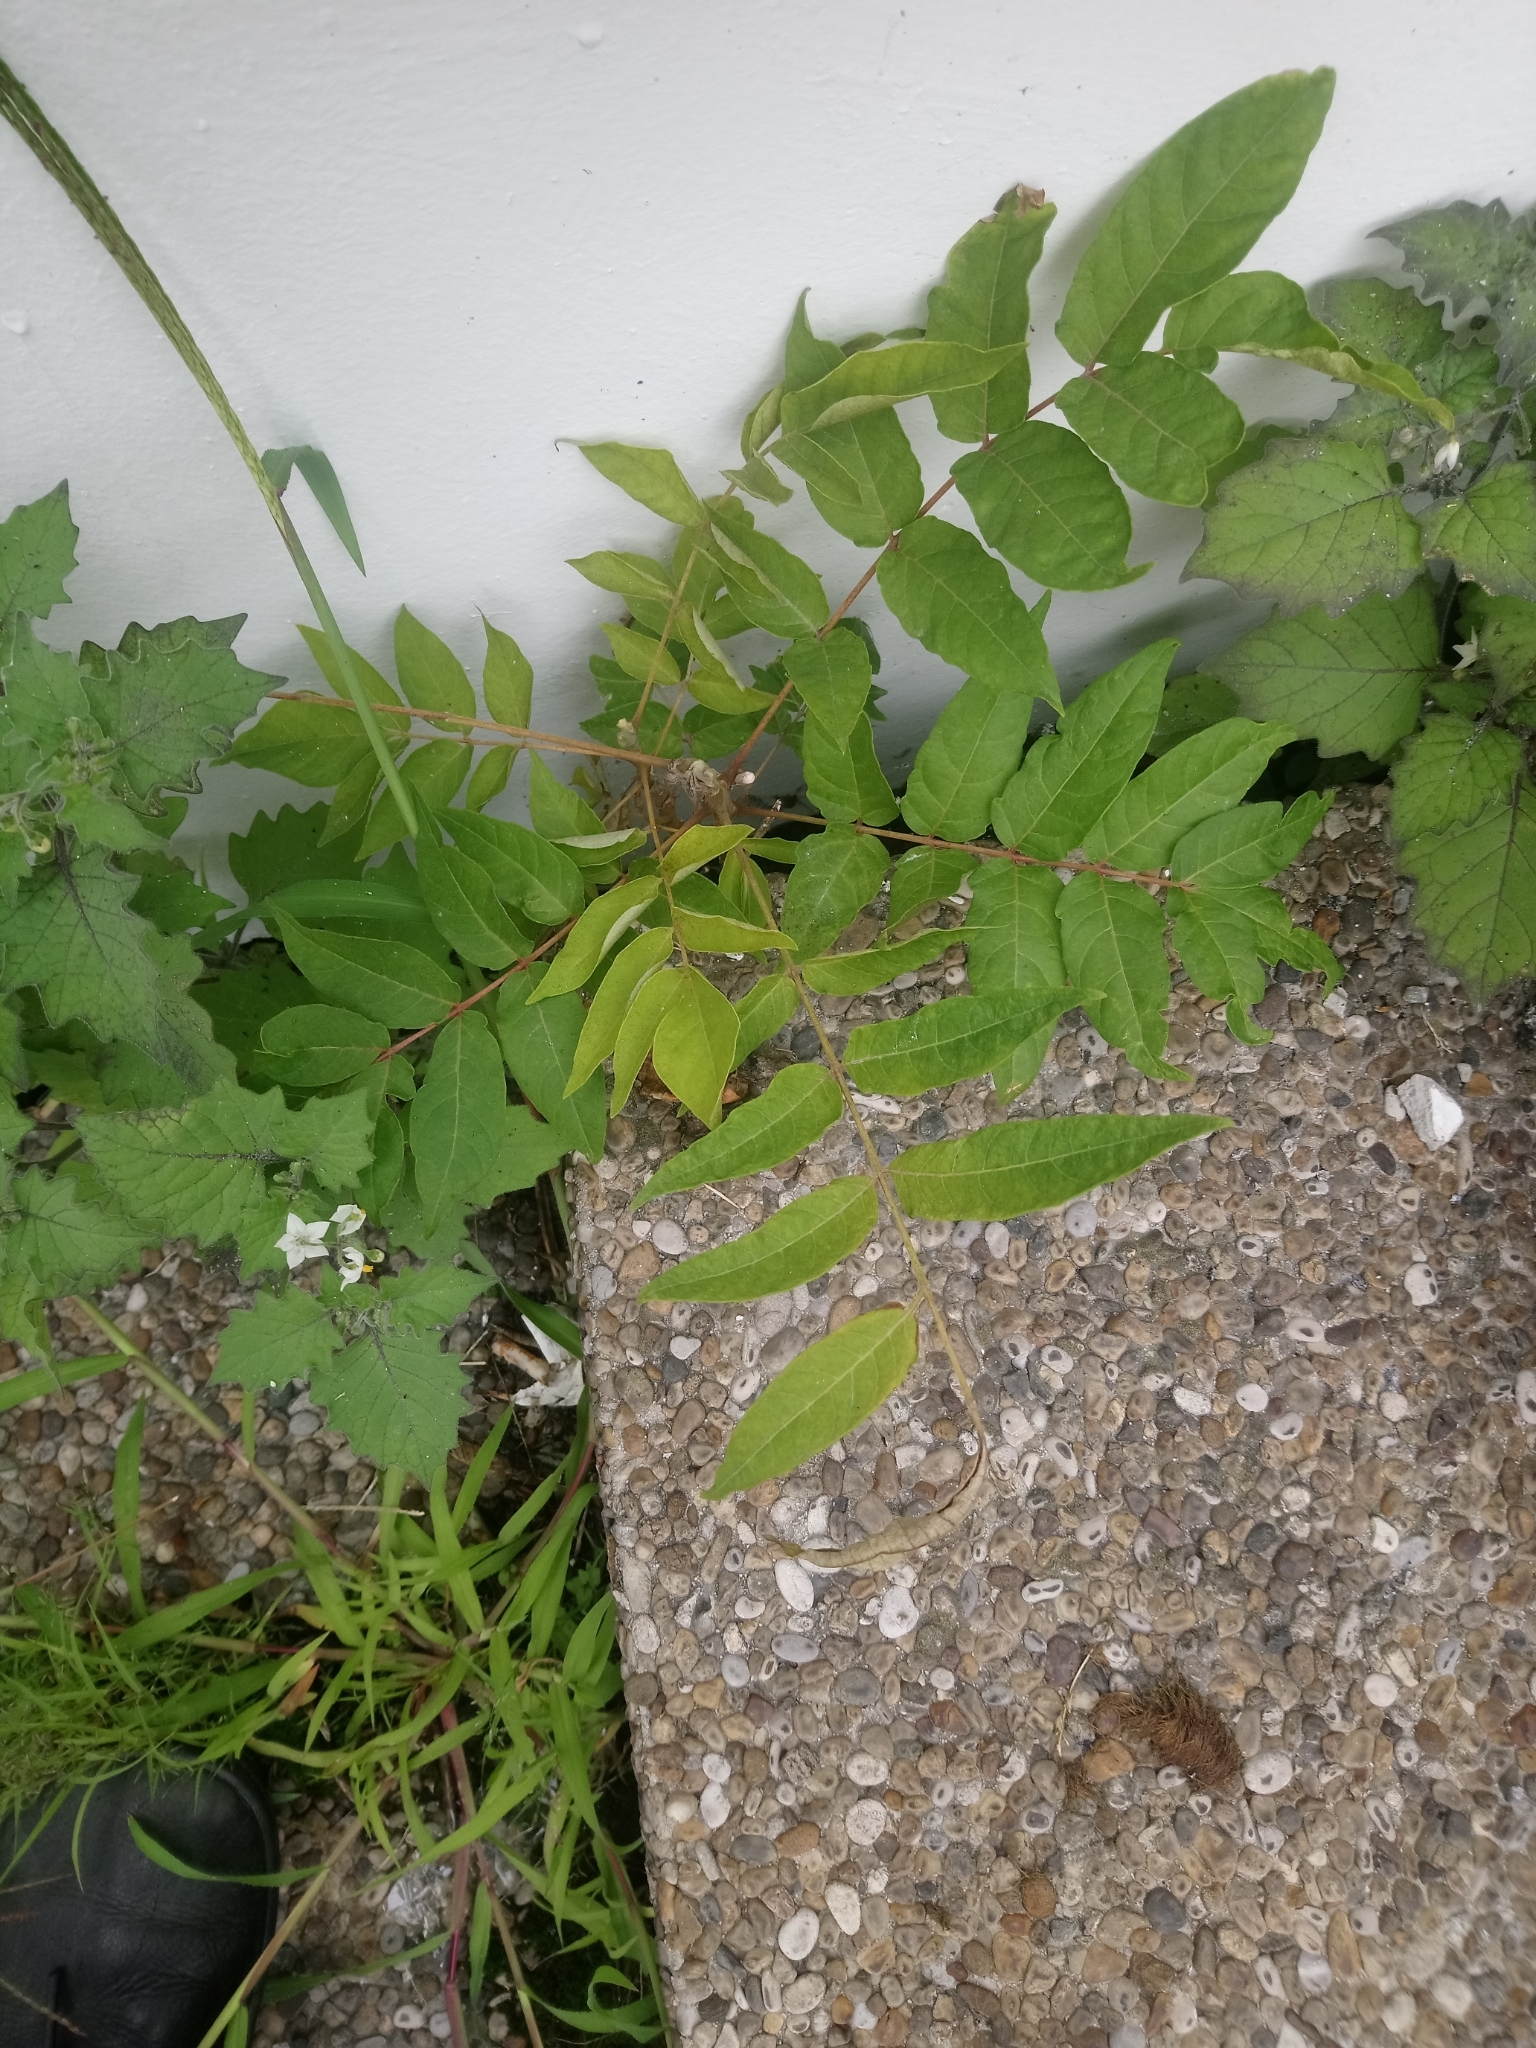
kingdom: Plantae
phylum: Tracheophyta
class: Magnoliopsida
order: Sapindales
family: Simaroubaceae
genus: Ailanthus
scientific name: Ailanthus altissima
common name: Tree-of-heaven
